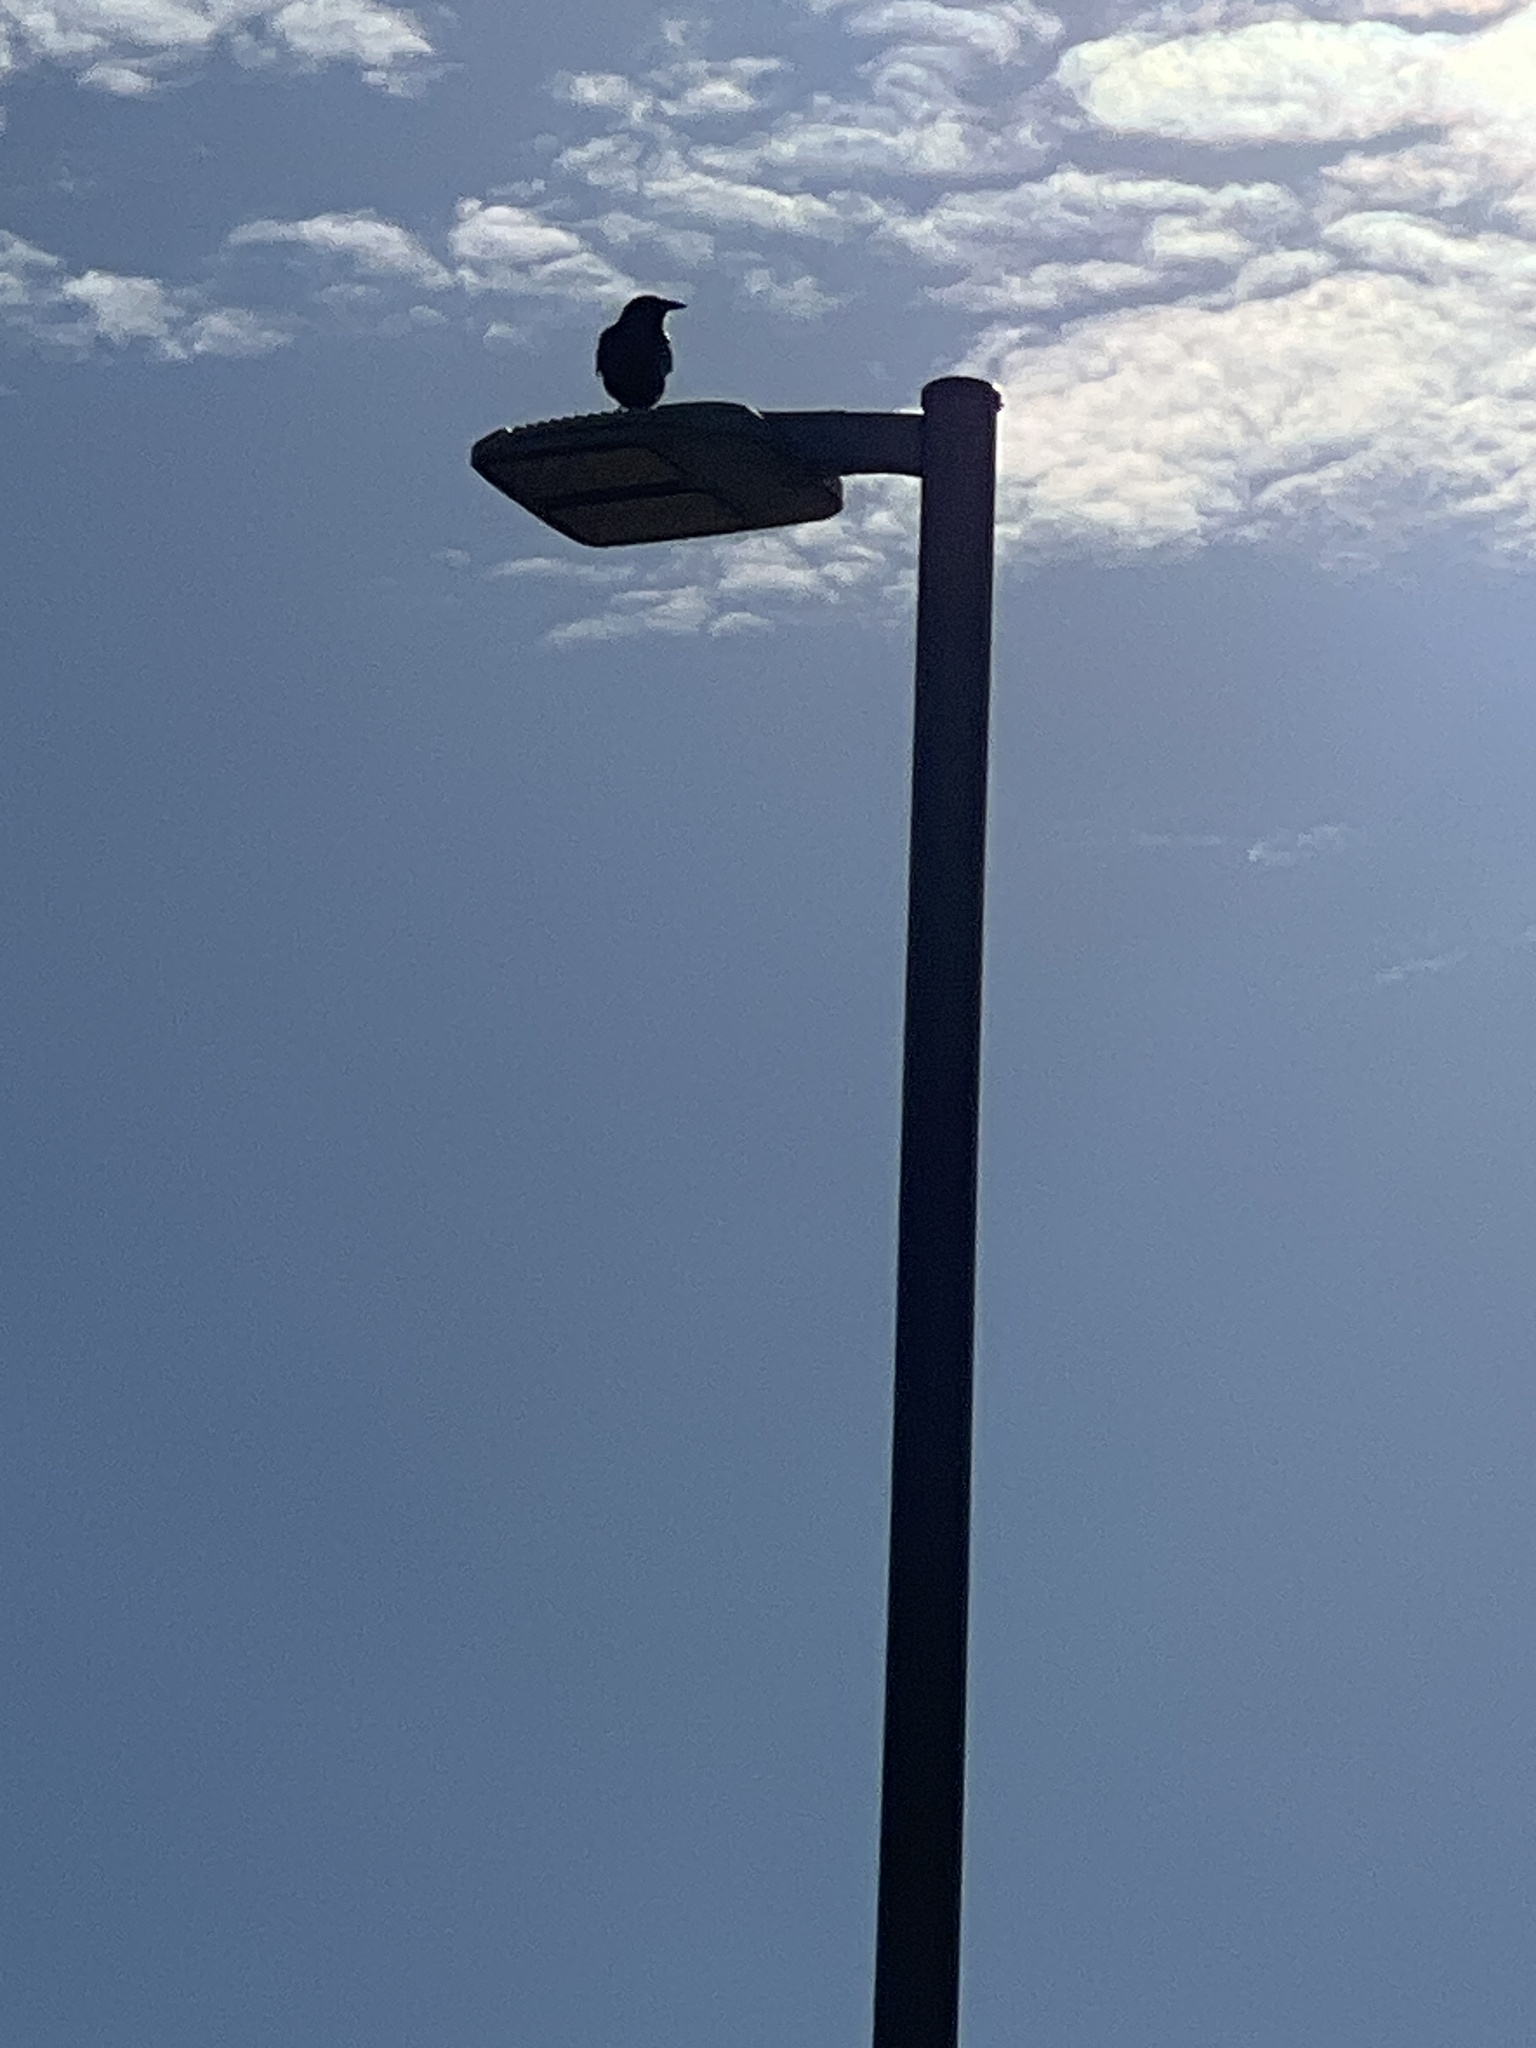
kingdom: Animalia
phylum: Chordata
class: Aves
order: Passeriformes
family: Corvidae
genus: Corvus
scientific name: Corvus ossifragus
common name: Fish crow
